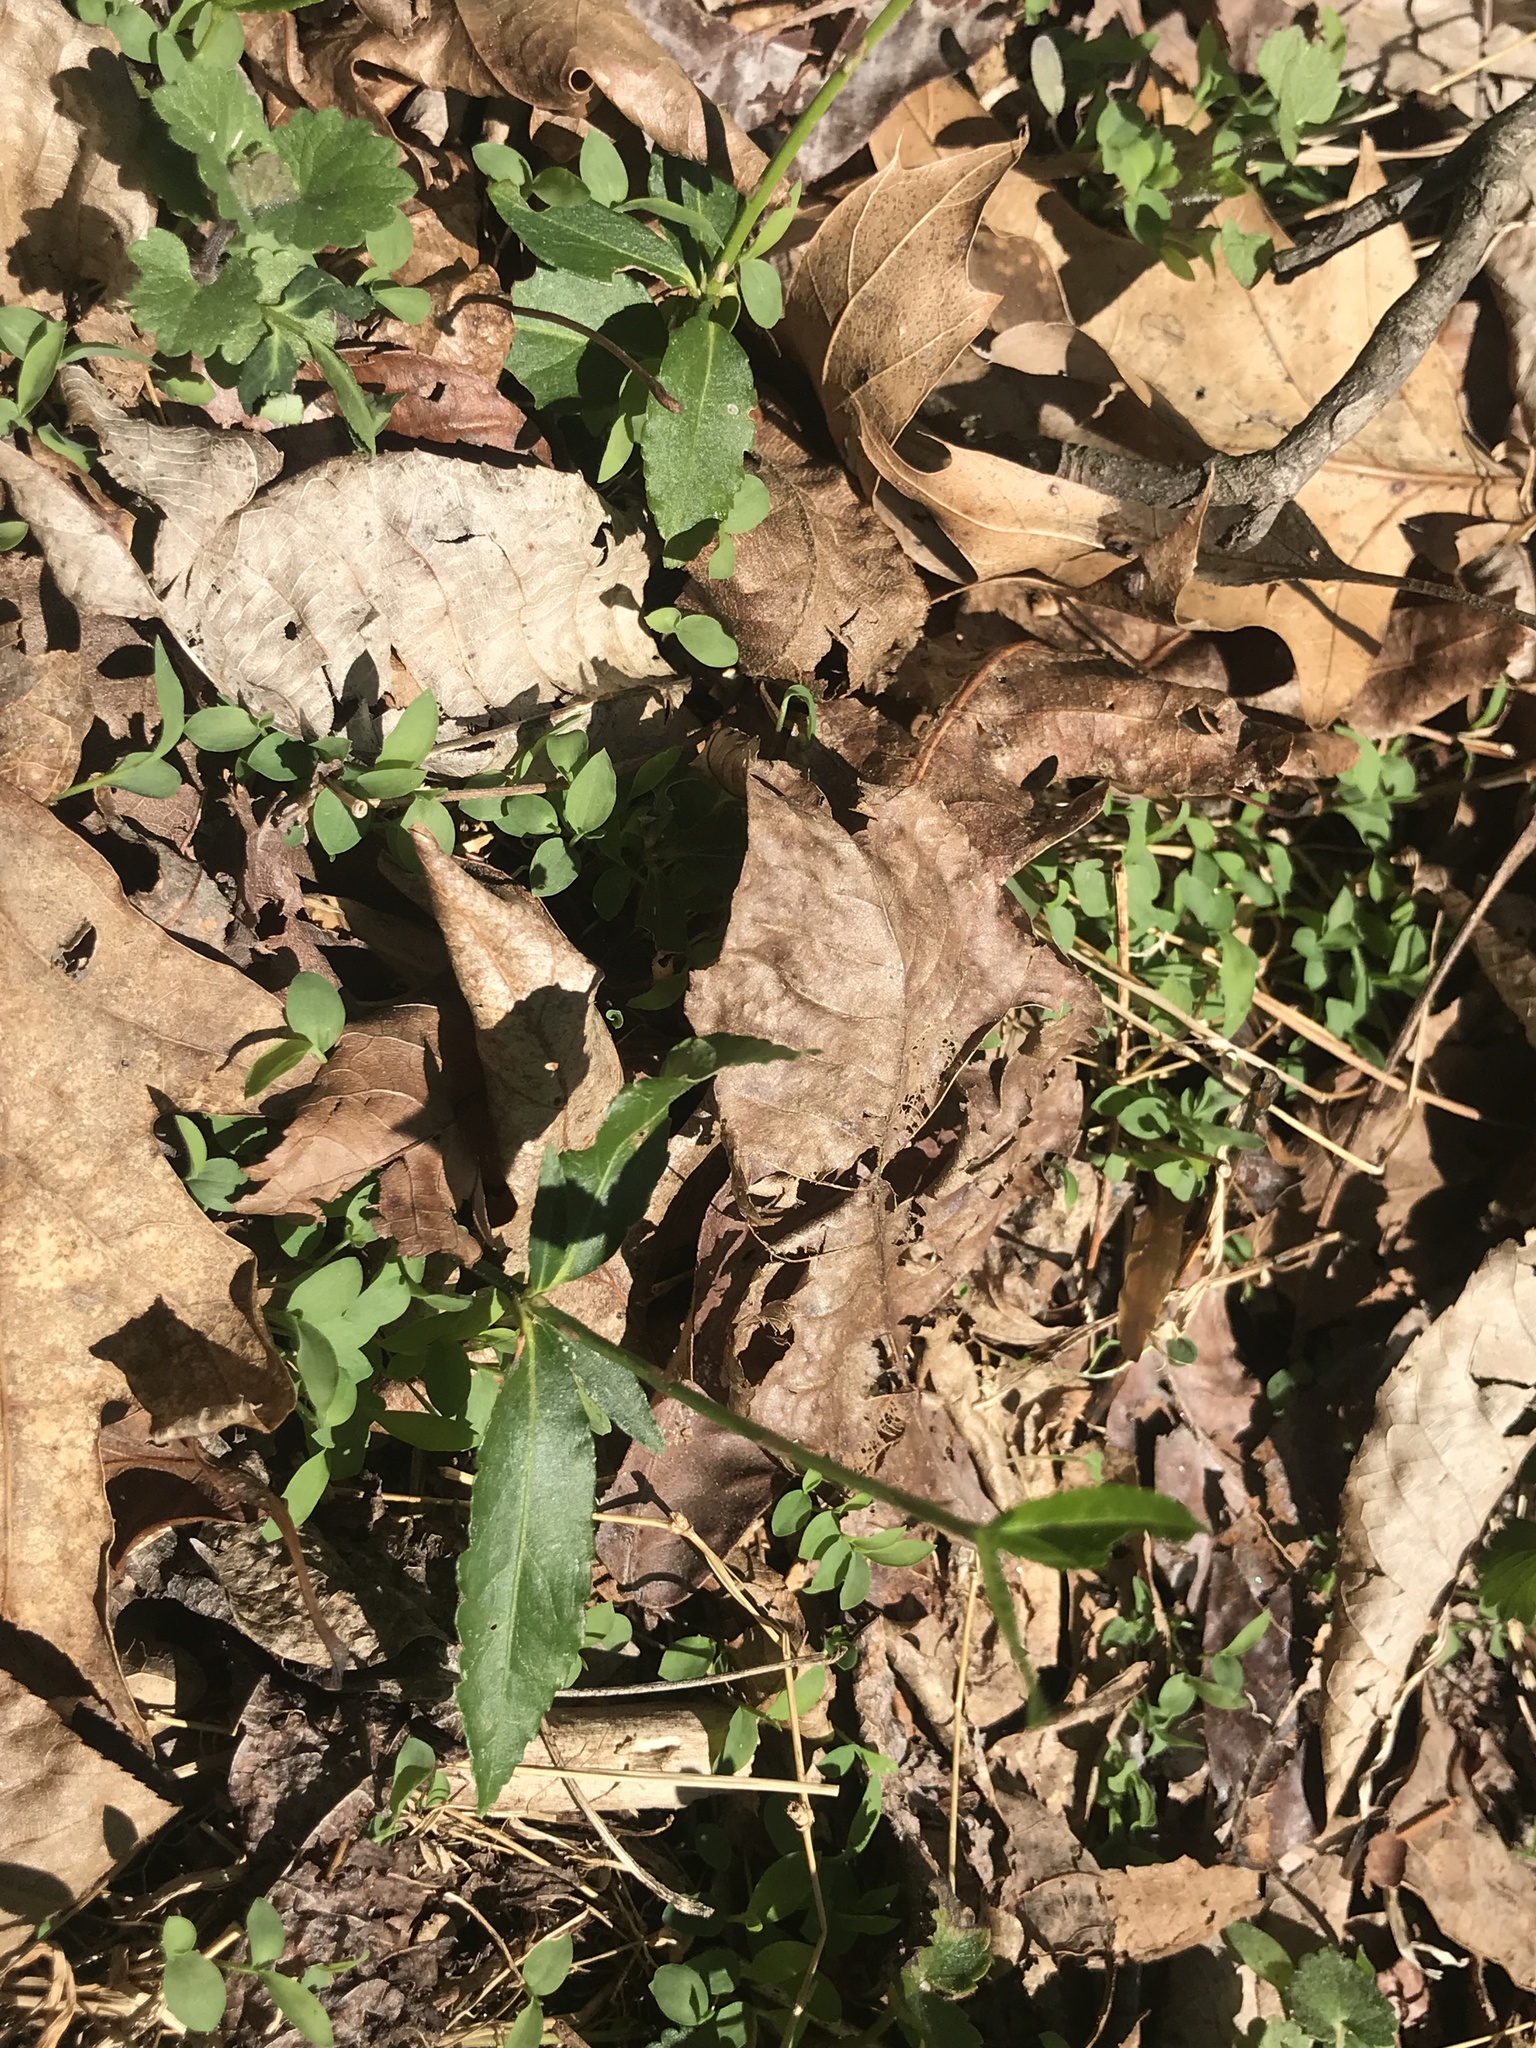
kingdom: Plantae
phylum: Tracheophyta
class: Magnoliopsida
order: Celastrales
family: Celastraceae
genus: Euonymus
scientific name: Euonymus americanus
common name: Bursting-heart
